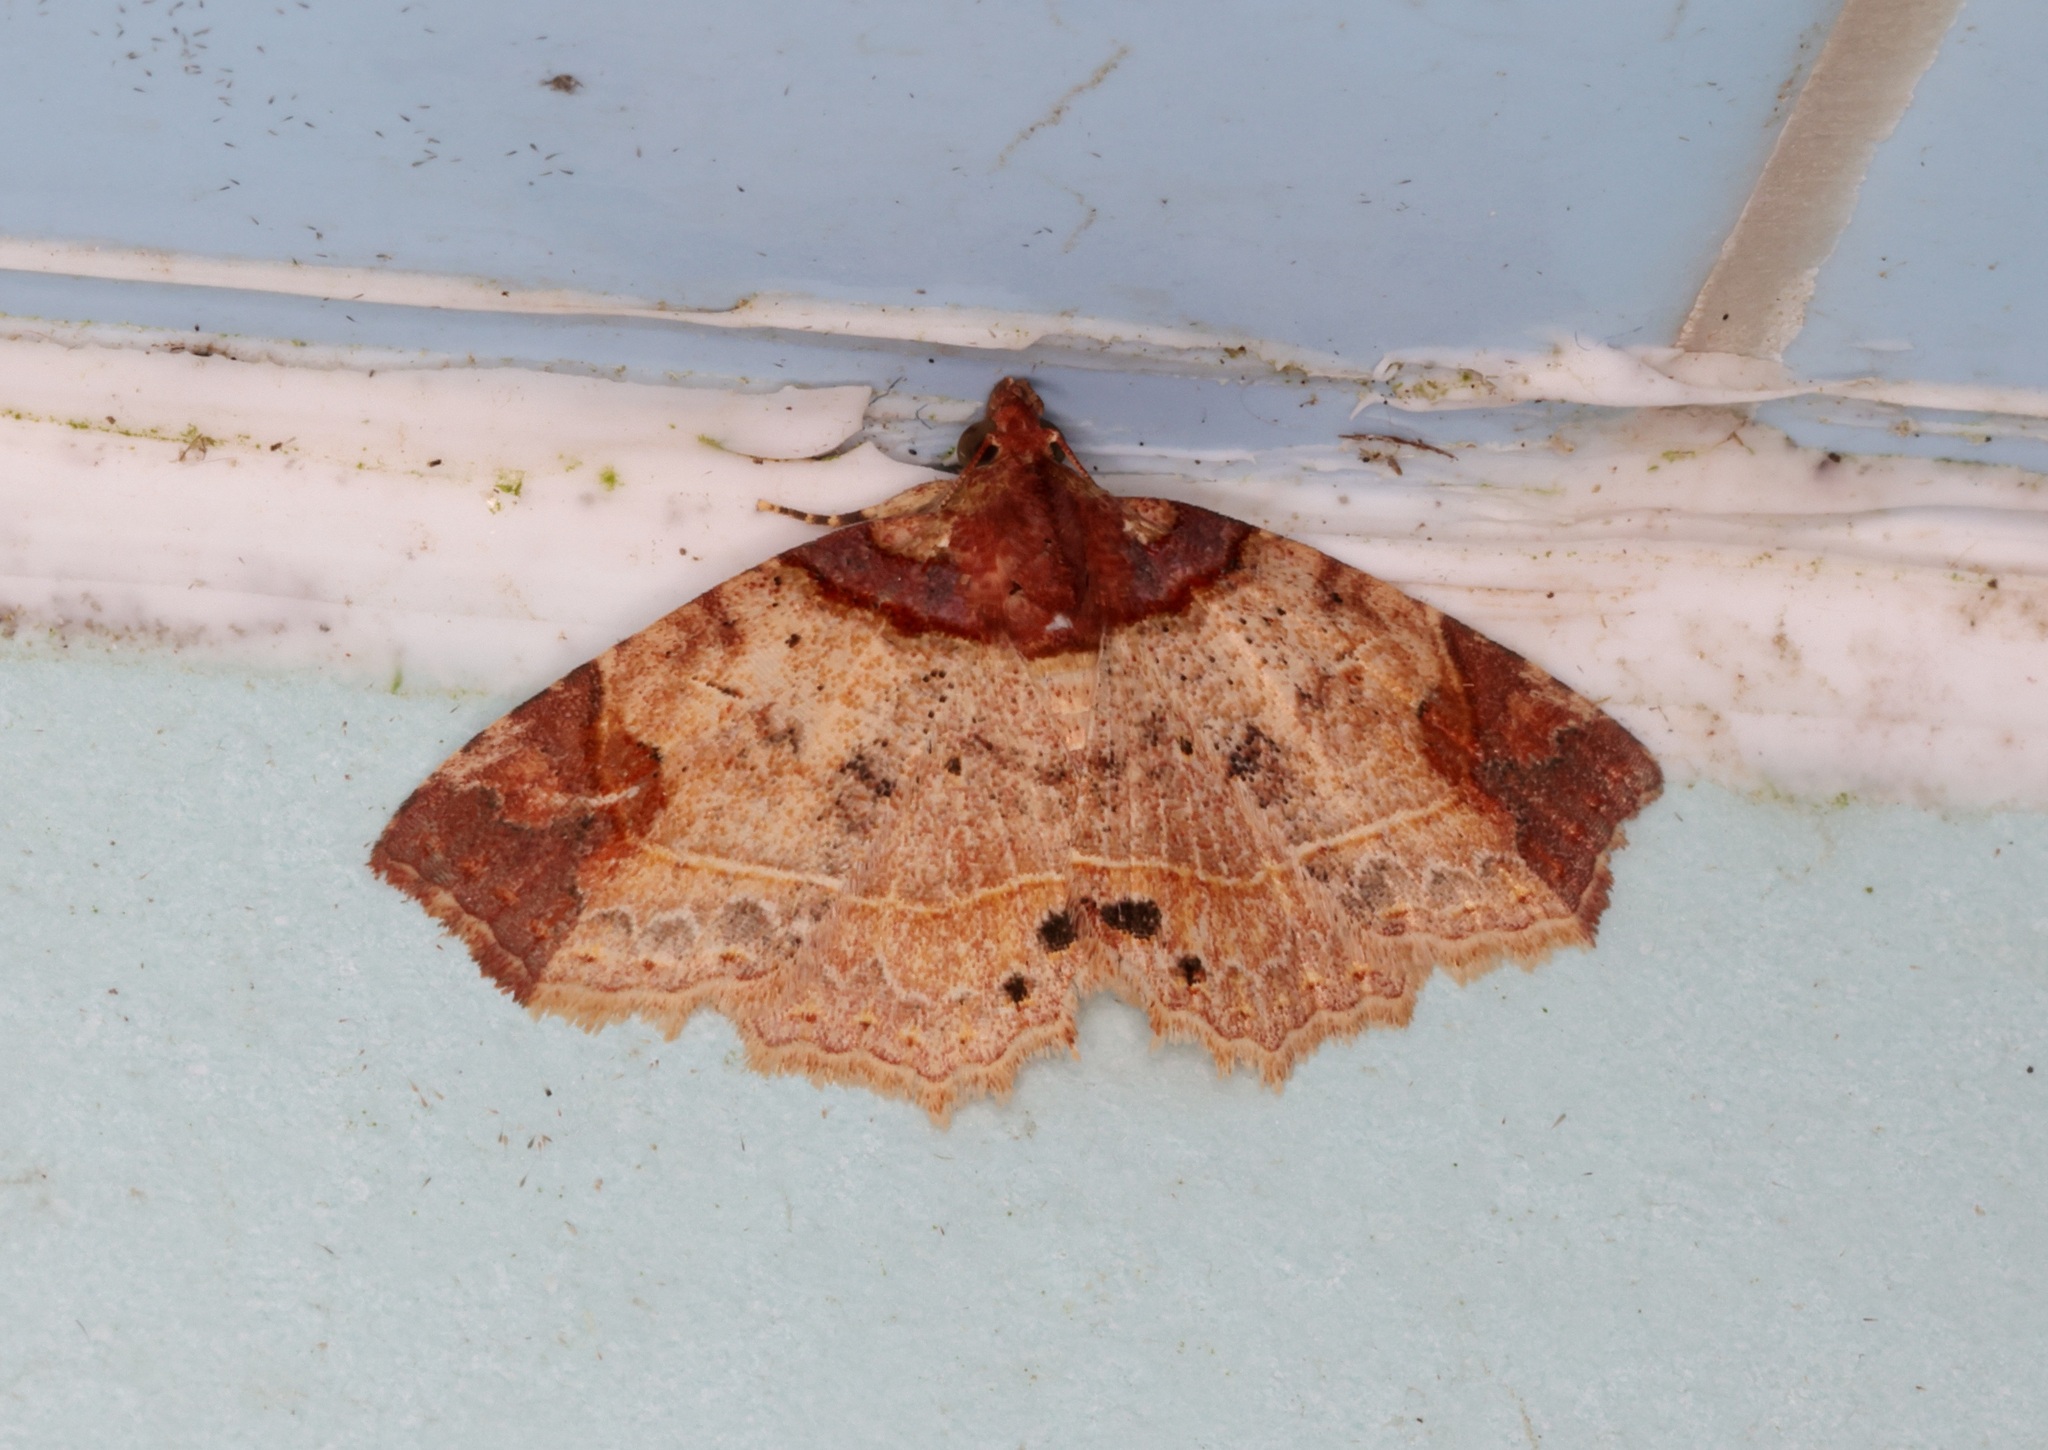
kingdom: Animalia
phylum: Arthropoda
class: Insecta
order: Lepidoptera
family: Erebidae
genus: Tamba
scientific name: Tamba apicata
